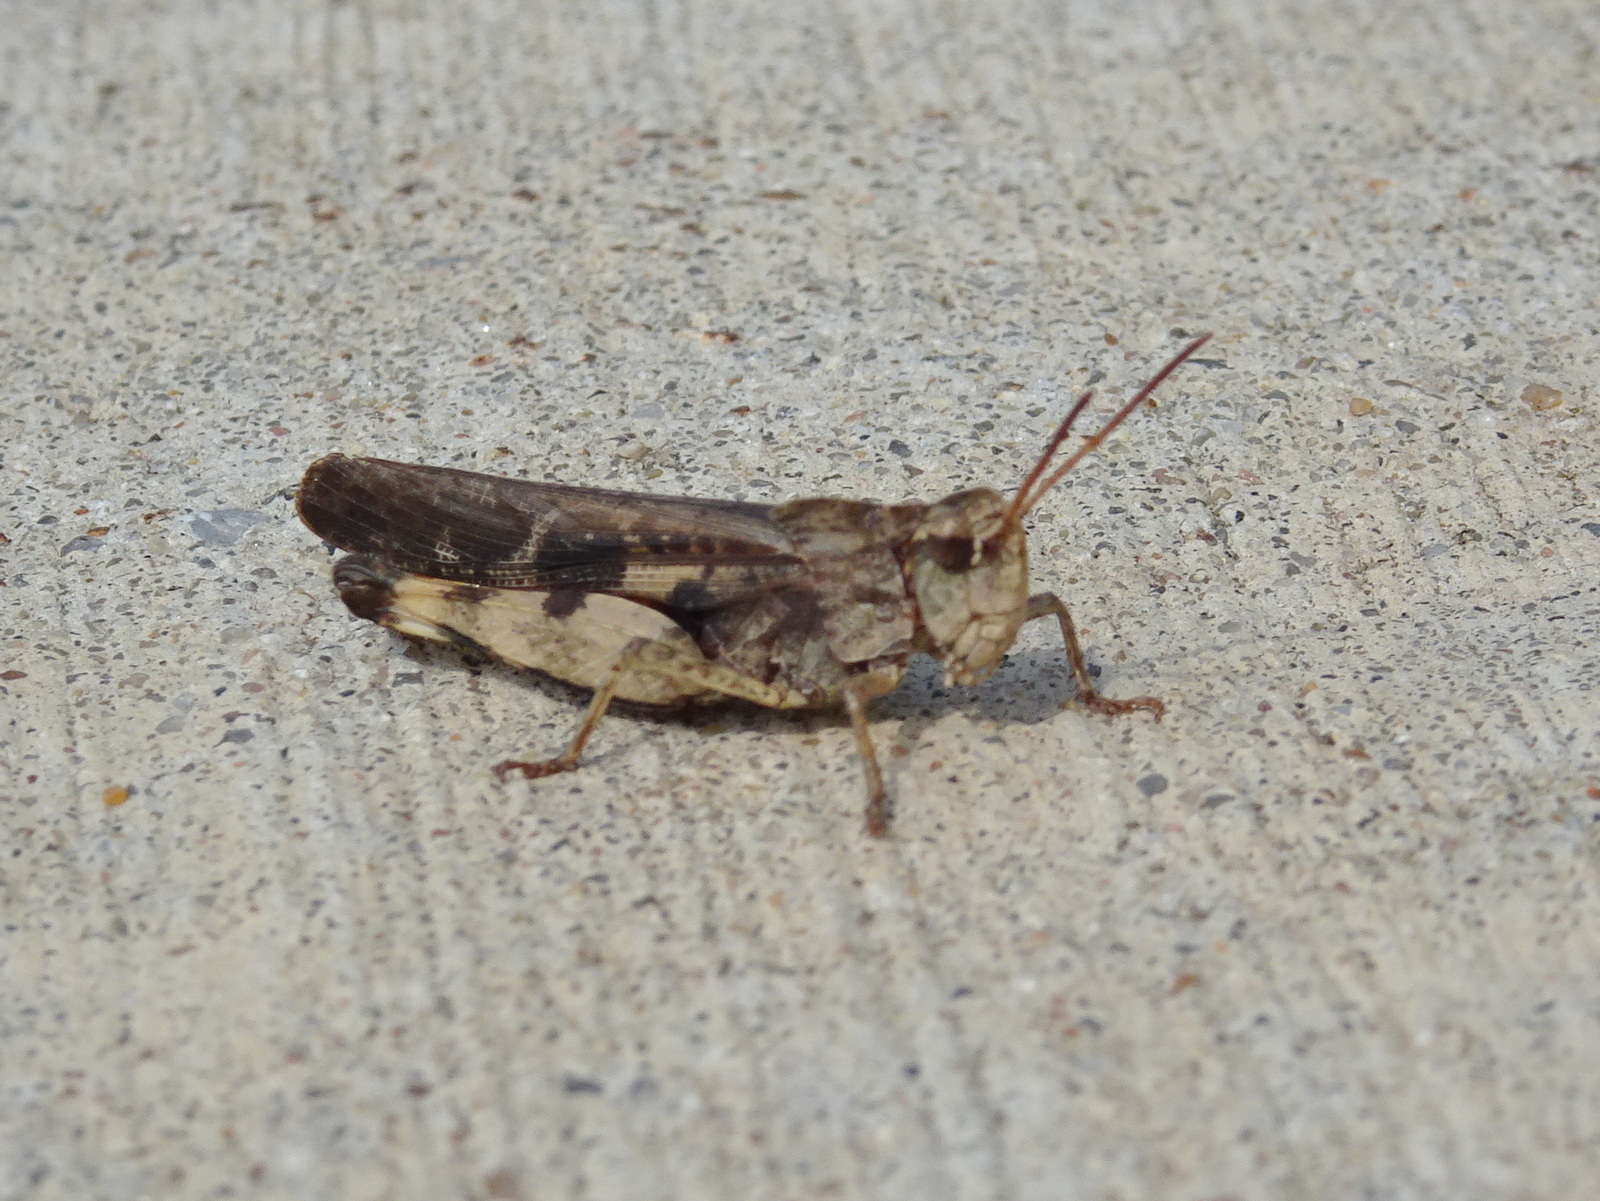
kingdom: Animalia
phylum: Arthropoda
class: Insecta
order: Orthoptera
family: Acrididae
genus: Chortophaga
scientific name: Chortophaga viridifasciata
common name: Green-striped grasshopper
